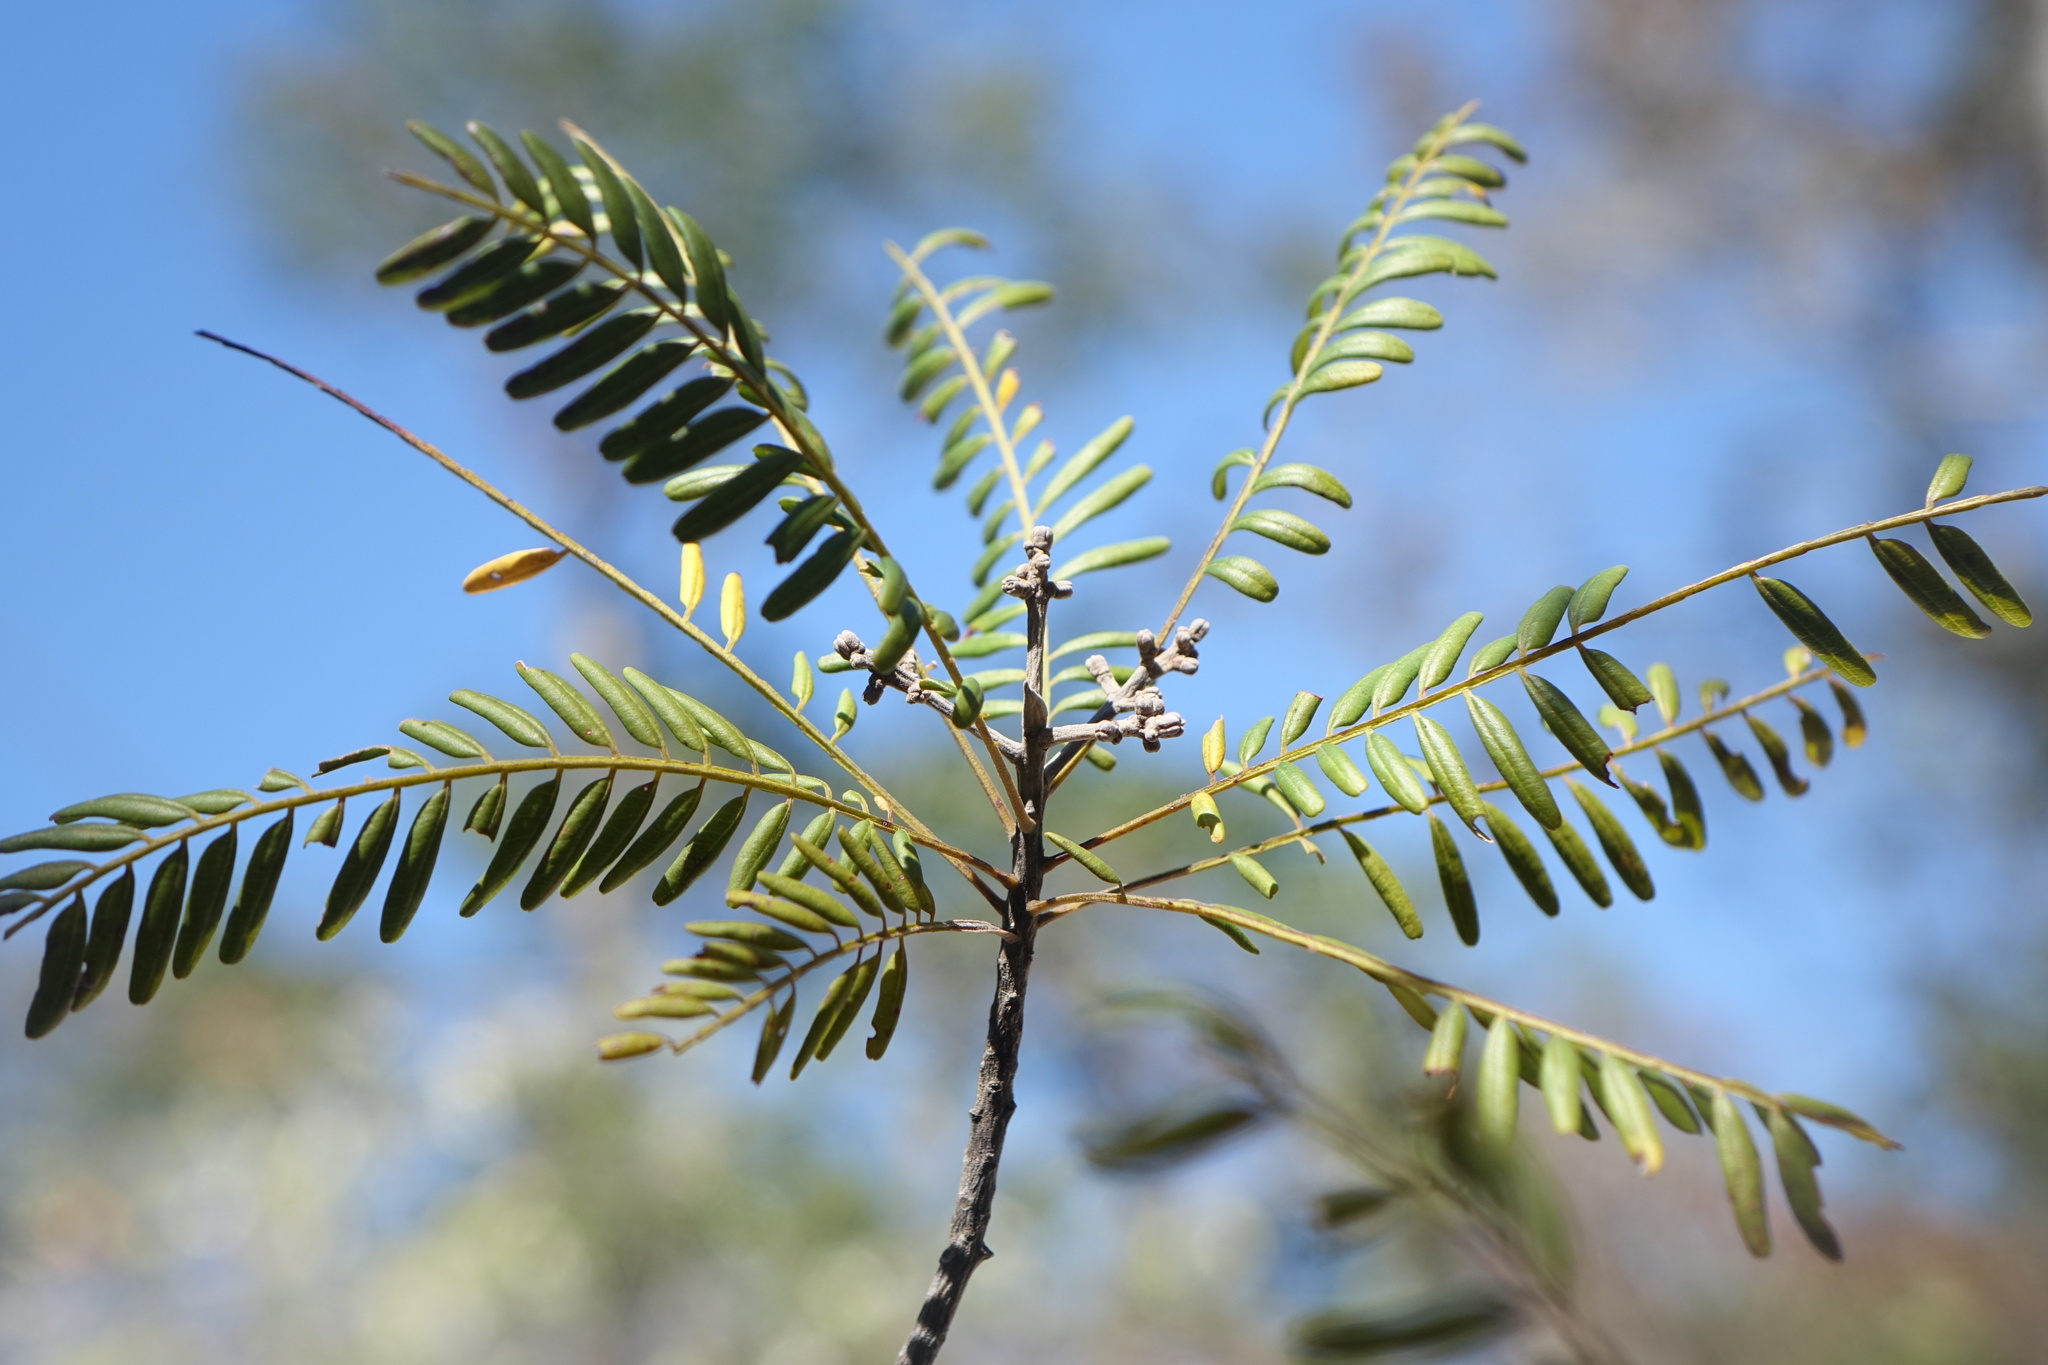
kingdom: Plantae
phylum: Tracheophyta
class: Magnoliopsida
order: Sapindales
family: Rutaceae
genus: Cedrelopsis
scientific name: Cedrelopsis microfoliolata
